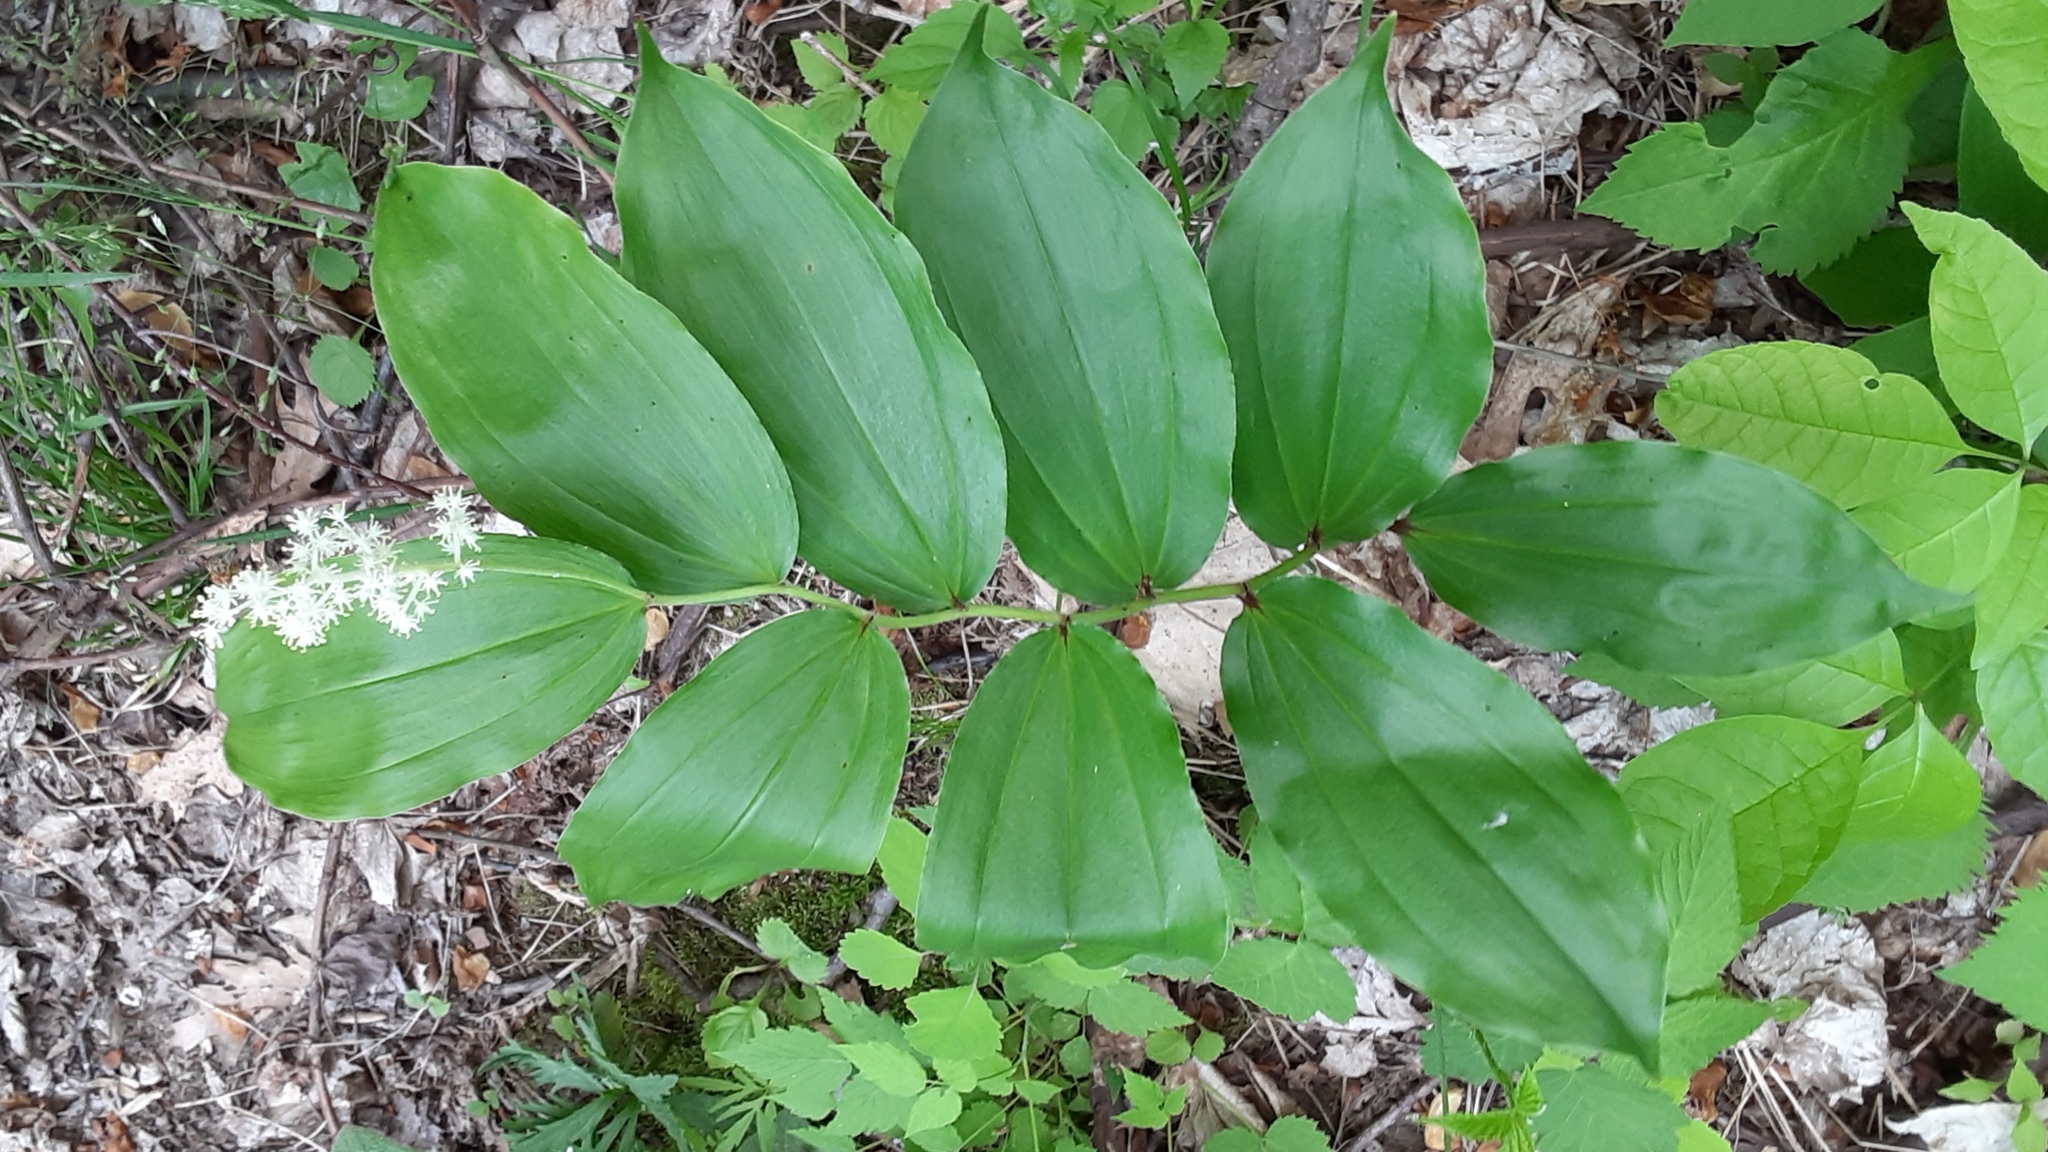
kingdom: Plantae
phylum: Tracheophyta
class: Liliopsida
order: Asparagales
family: Asparagaceae
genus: Maianthemum
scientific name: Maianthemum racemosum
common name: False spikenard
